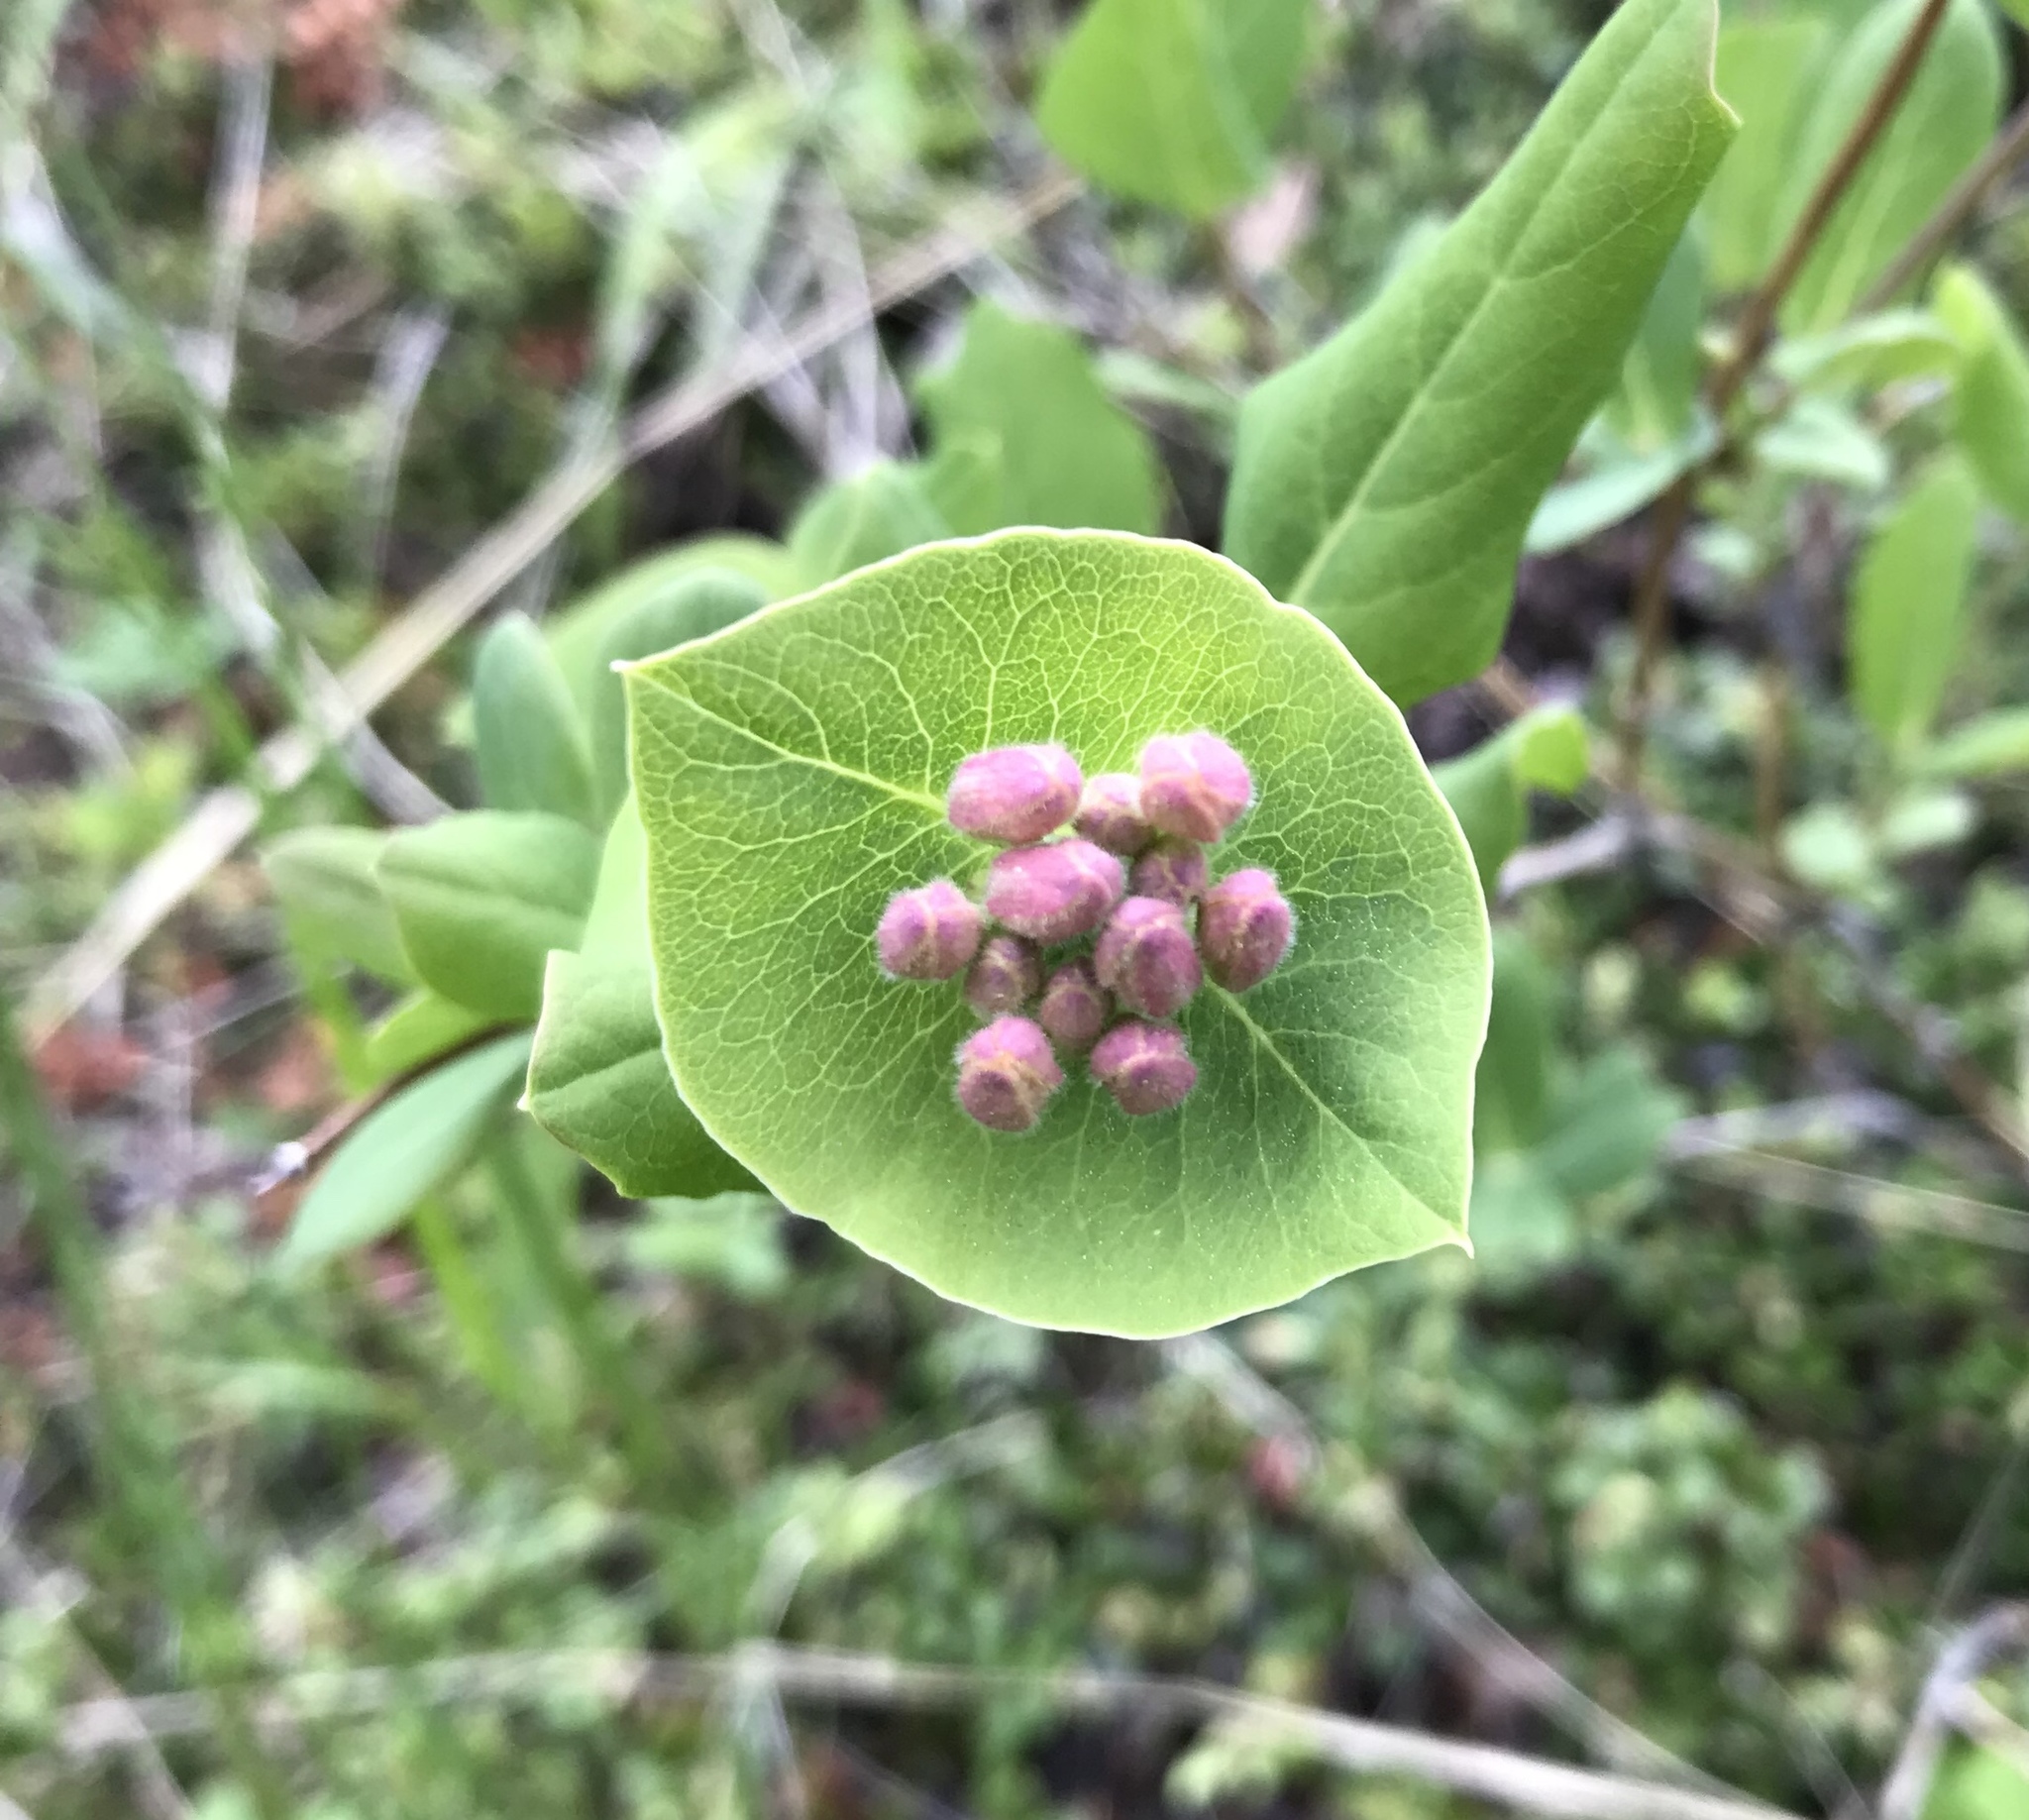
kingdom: Plantae
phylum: Tracheophyta
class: Magnoliopsida
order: Dipsacales
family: Caprifoliaceae
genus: Lonicera
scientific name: Lonicera dioica
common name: Limber honeysuckle
